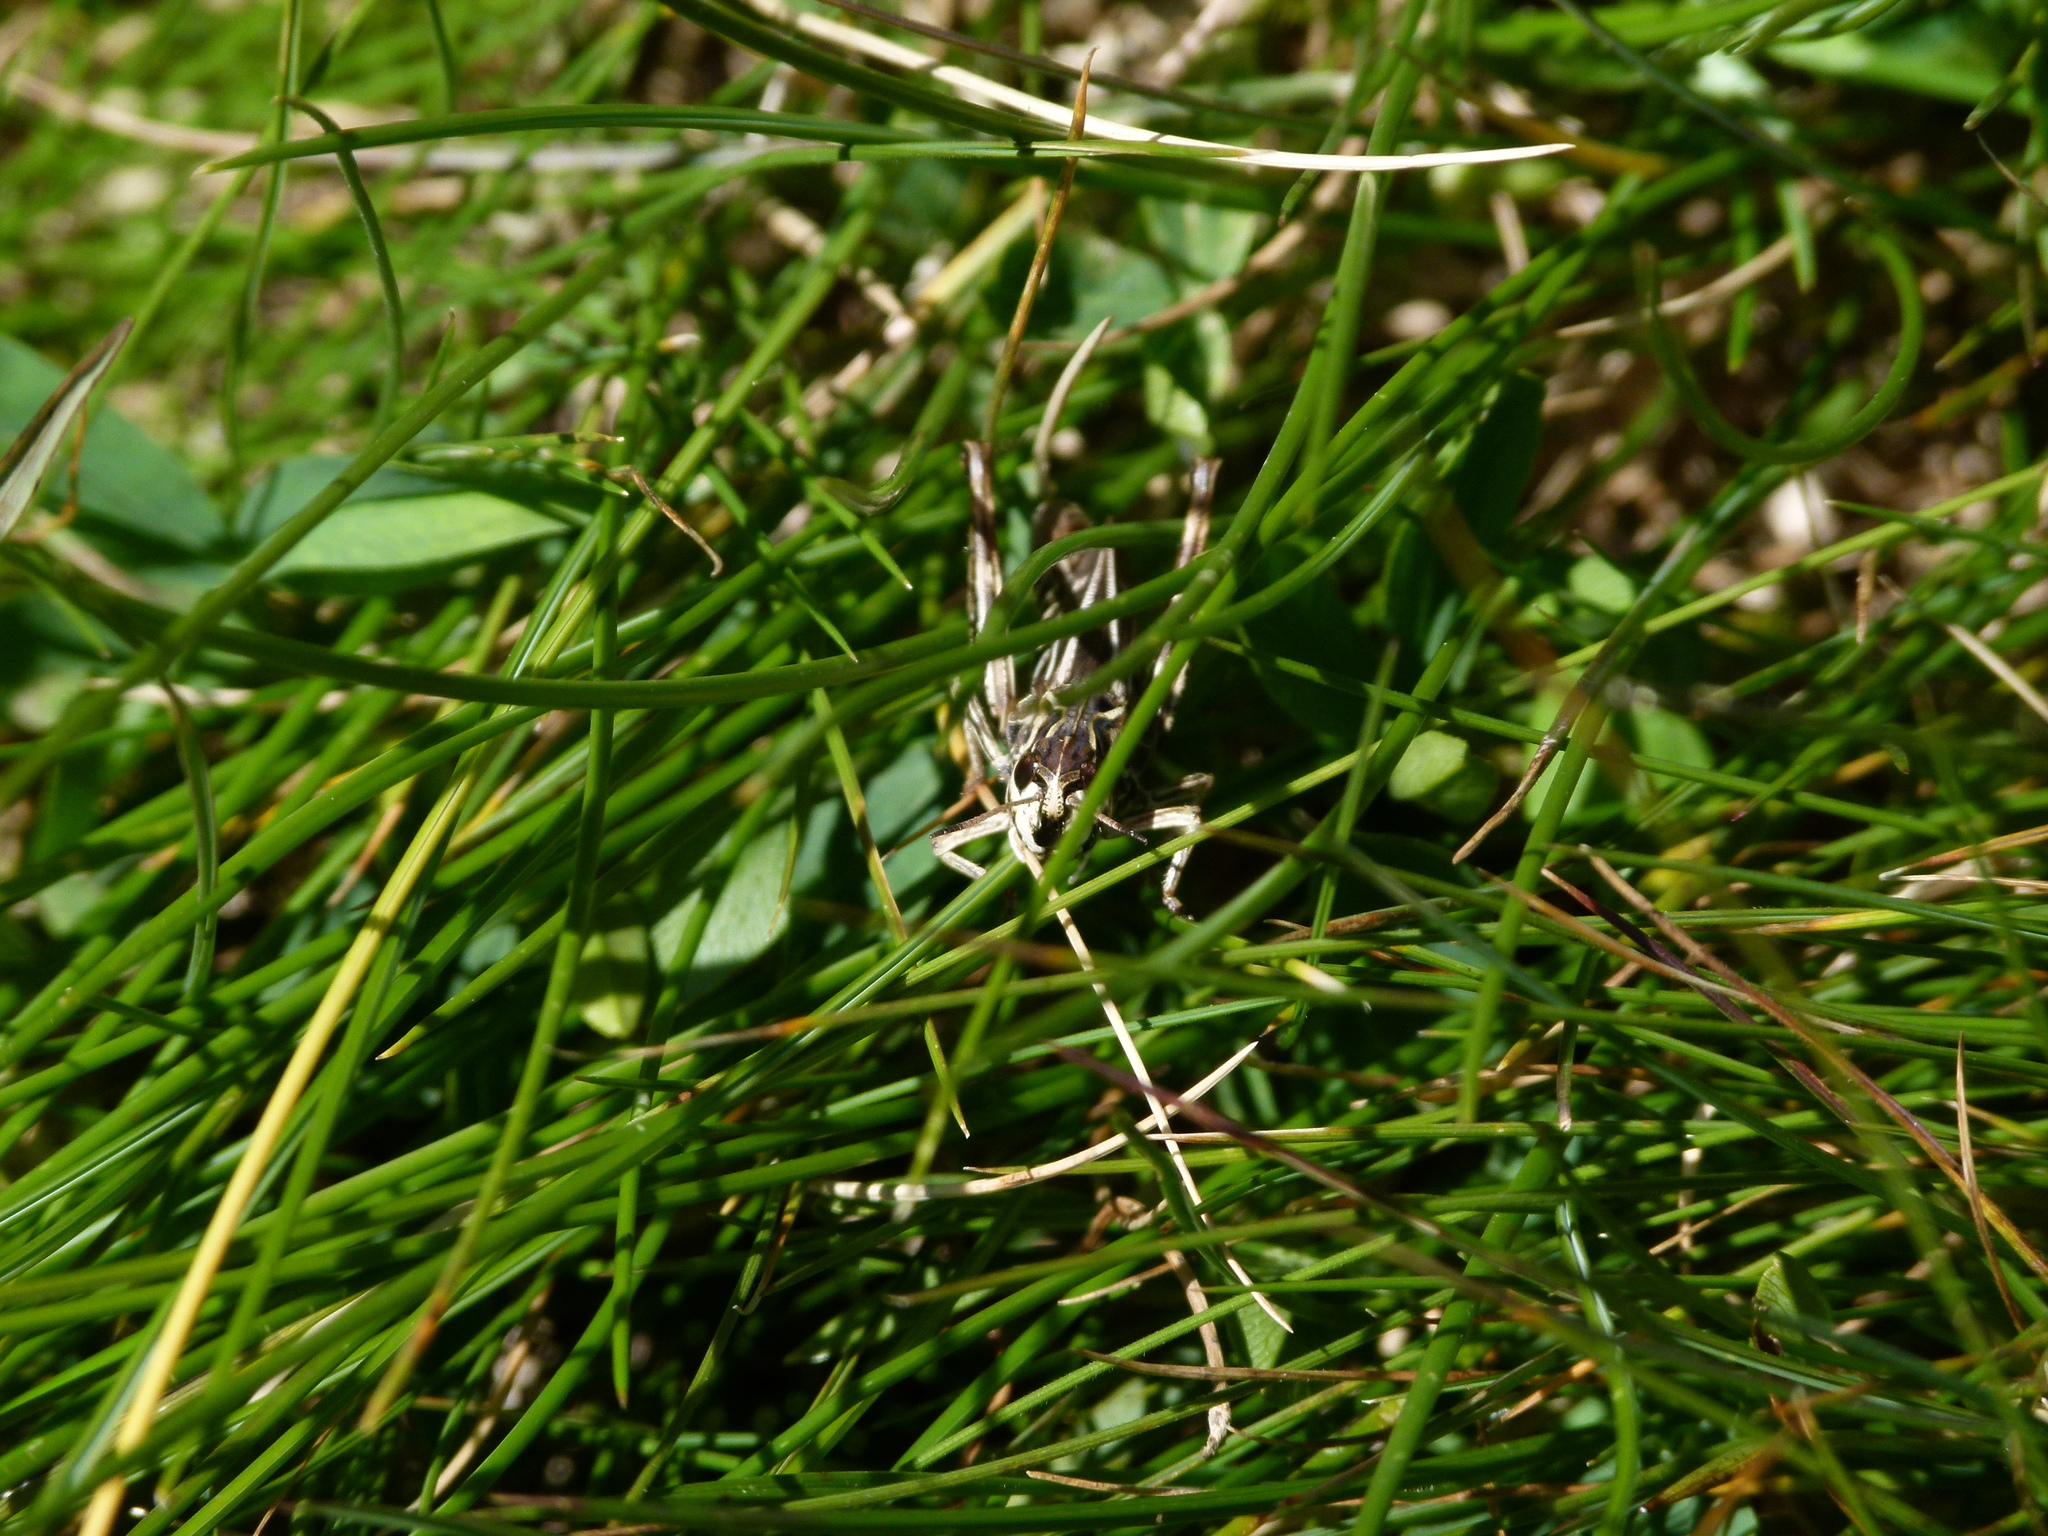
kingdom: Animalia
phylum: Arthropoda
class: Insecta
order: Orthoptera
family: Acrididae
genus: Gomphocerus
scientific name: Gomphocerus sibiricus
